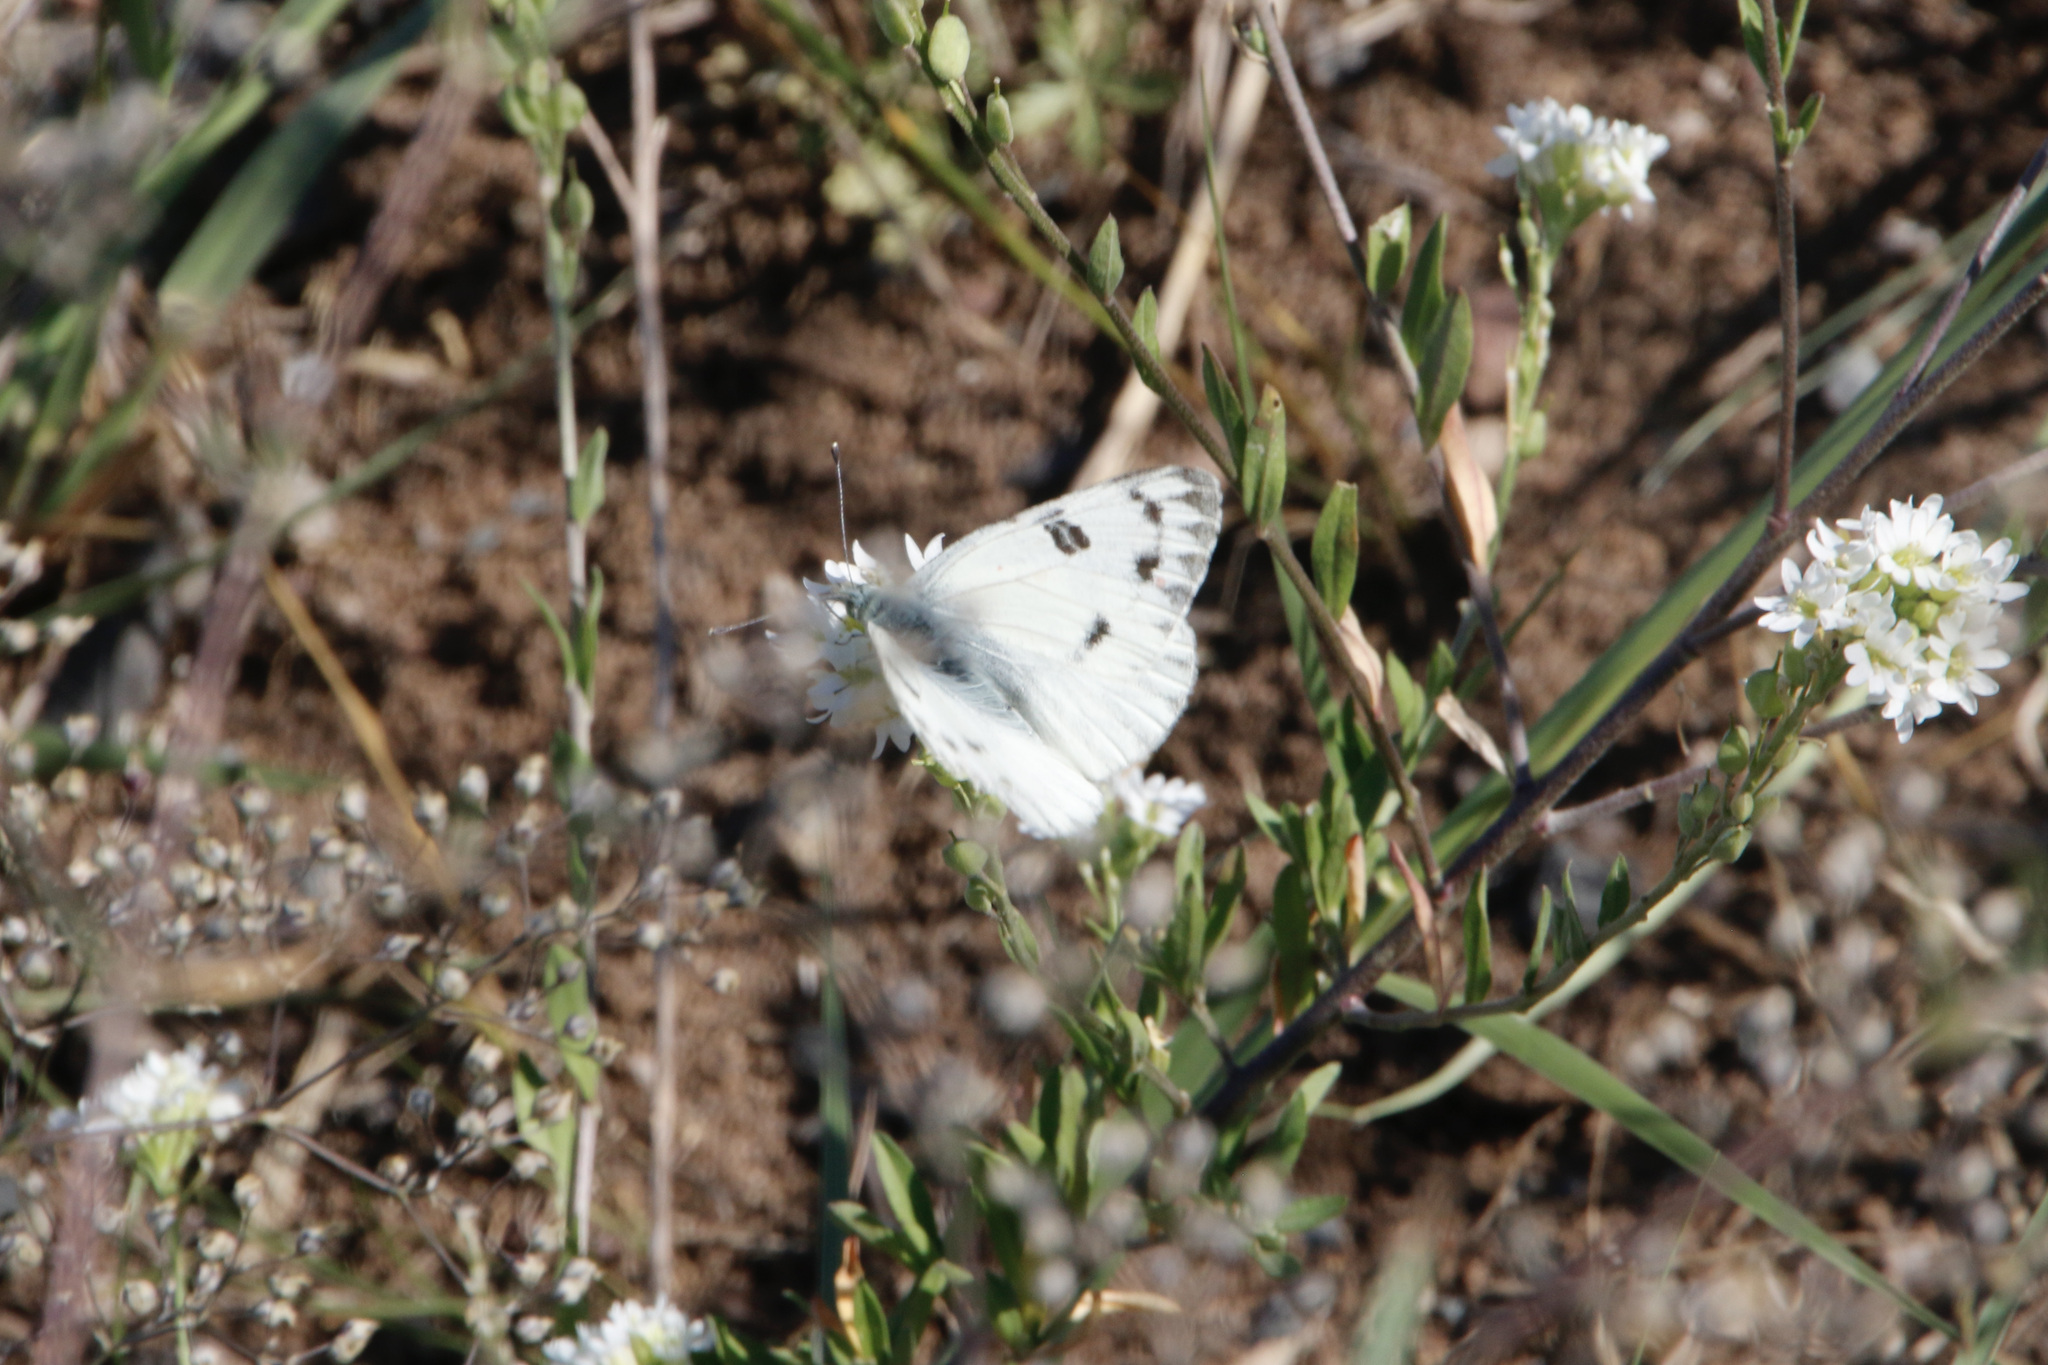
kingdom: Animalia
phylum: Arthropoda
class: Insecta
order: Lepidoptera
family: Pieridae
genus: Pontia
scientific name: Pontia occidentalis
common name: Western white
